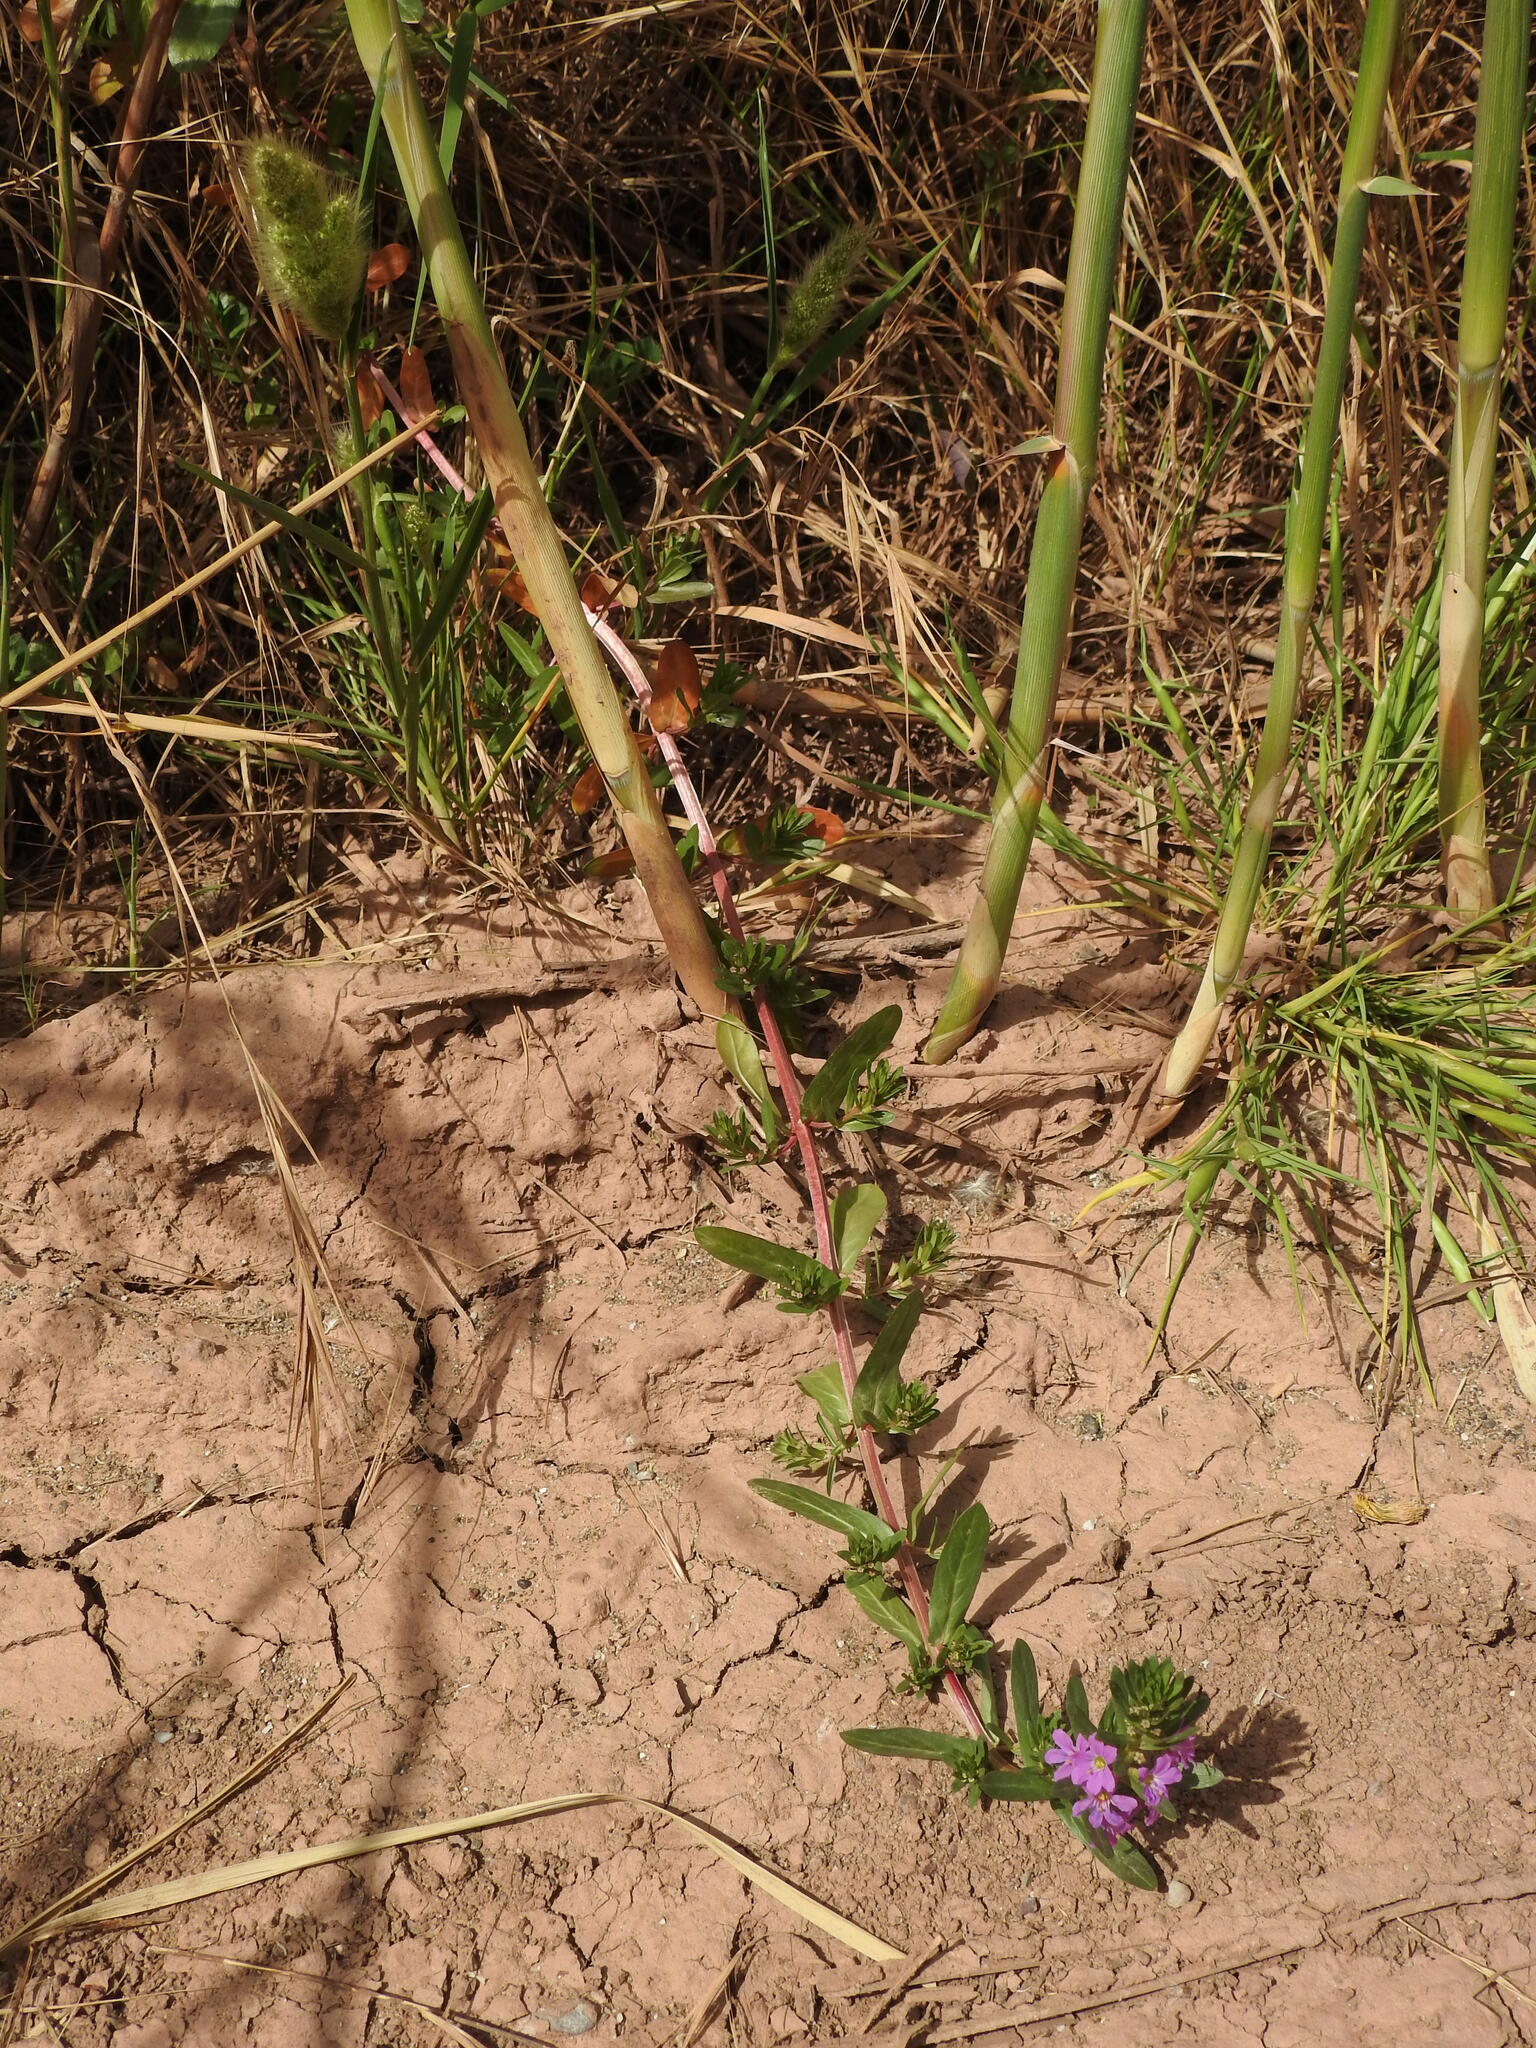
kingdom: Plantae
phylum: Tracheophyta
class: Magnoliopsida
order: Myrtales
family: Lythraceae
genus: Lythrum
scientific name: Lythrum junceum
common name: False grass-poly
